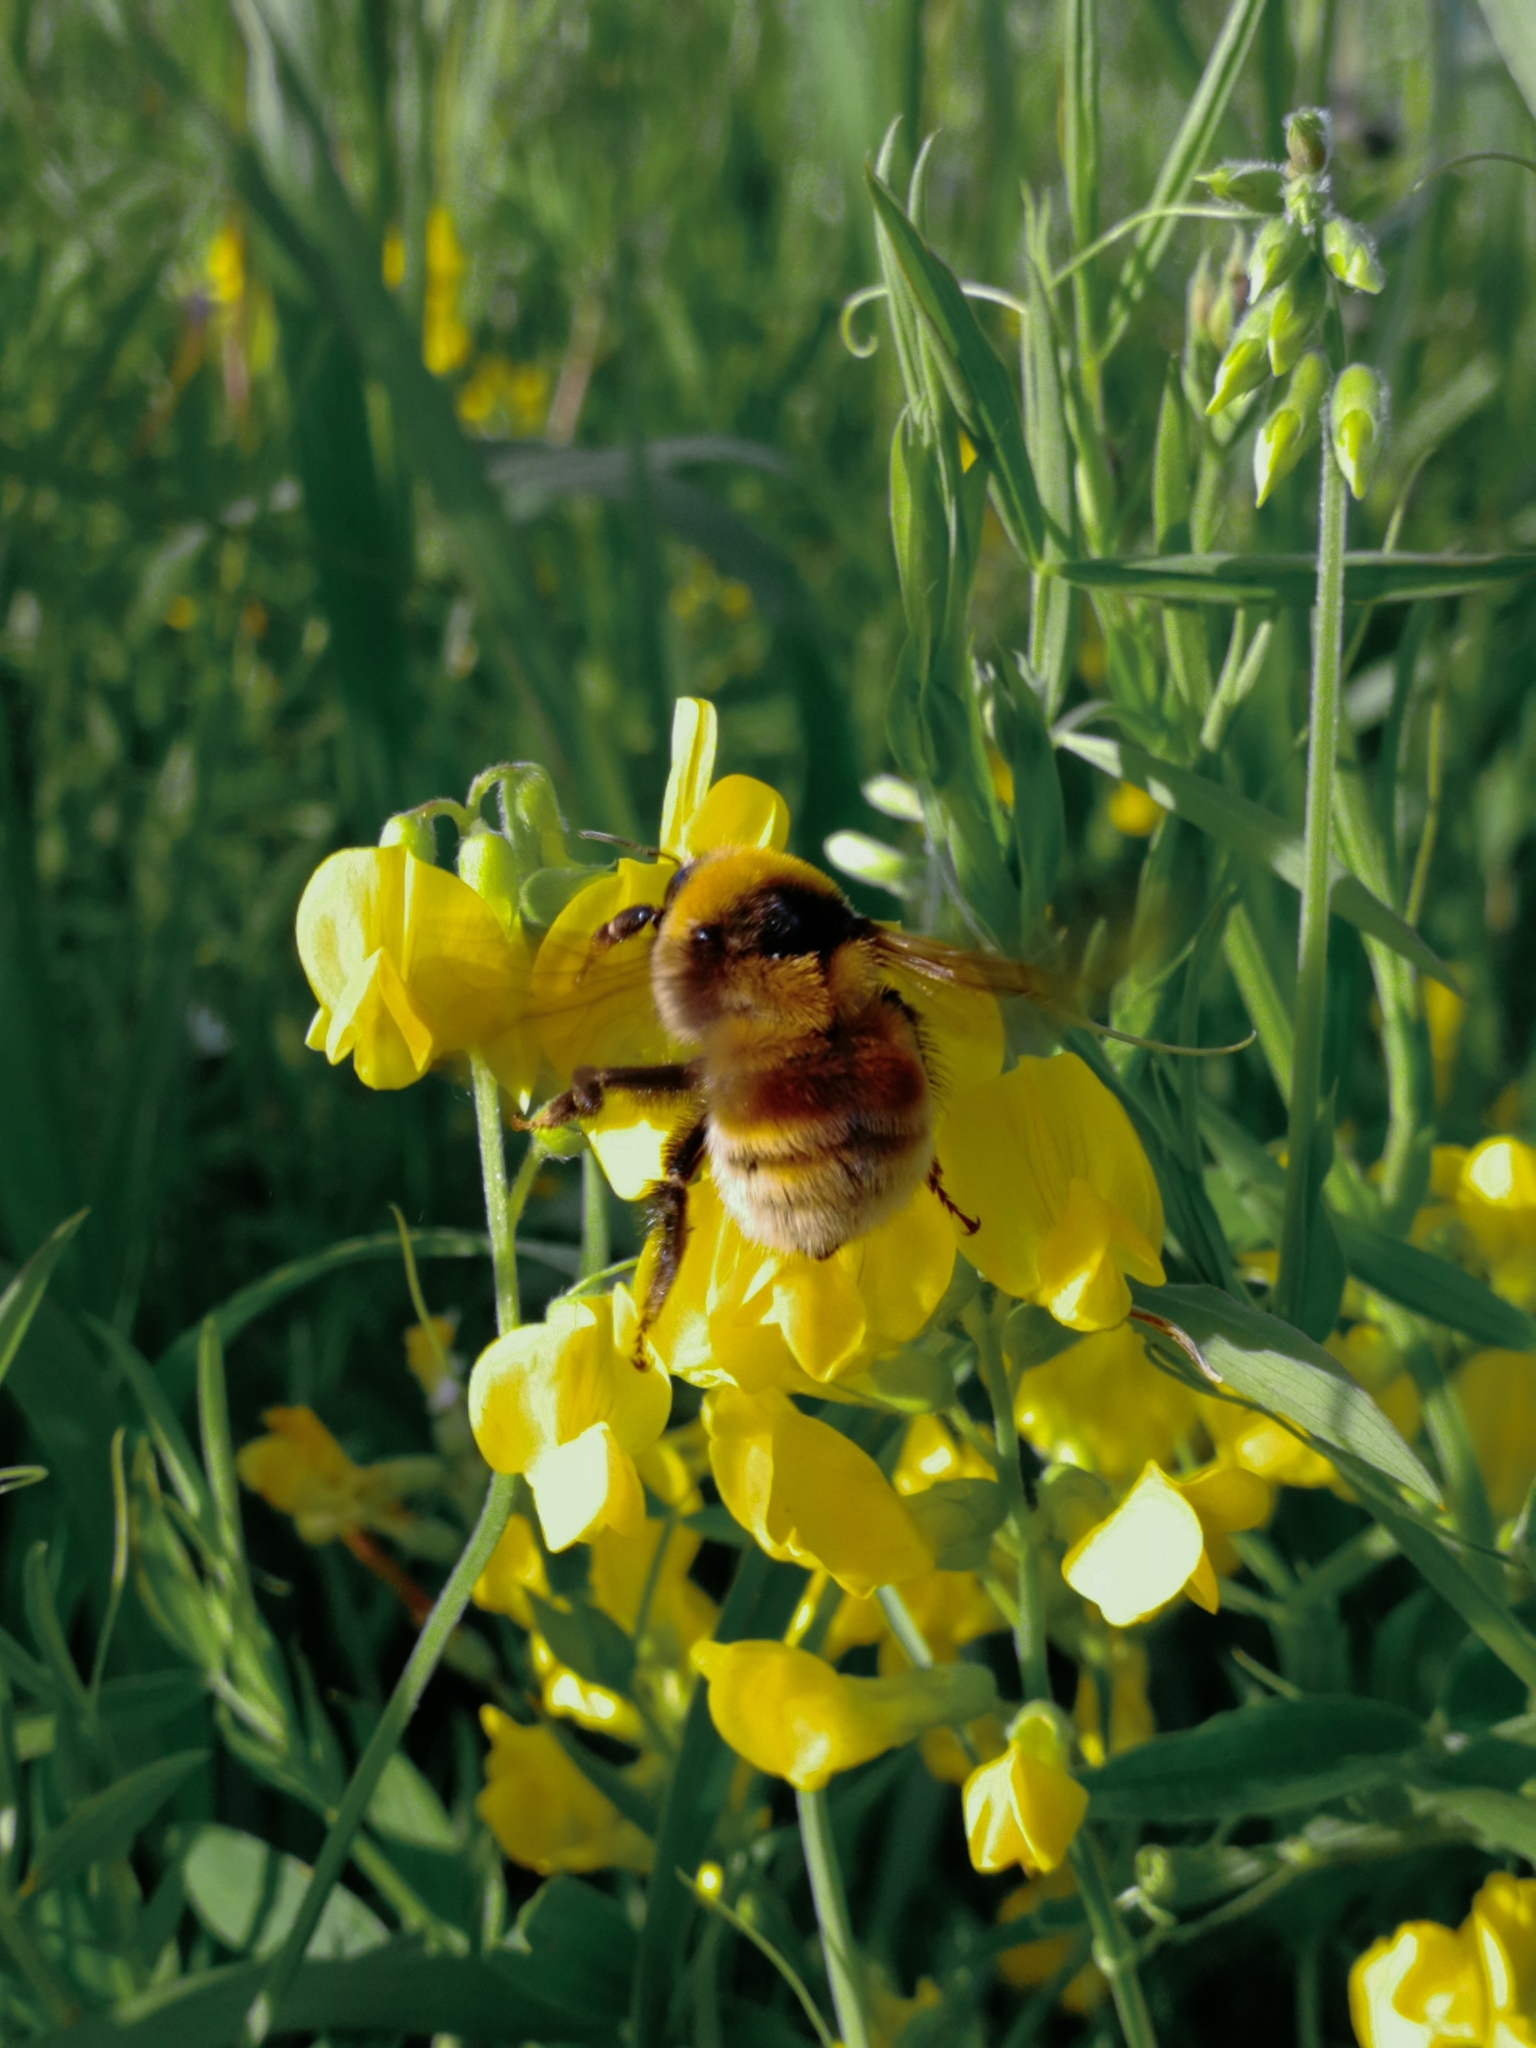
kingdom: Animalia
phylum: Arthropoda
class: Insecta
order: Hymenoptera
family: Apidae
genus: Bombus
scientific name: Bombus distinguendus
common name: Great yellow humble-bee
